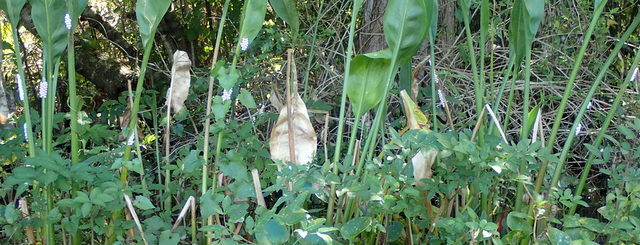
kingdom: Animalia
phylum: Mollusca
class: Gastropoda
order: Architaenioglossa
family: Ampullariidae
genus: Pomacea
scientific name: Pomacea paludosa
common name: Florida applesnail
